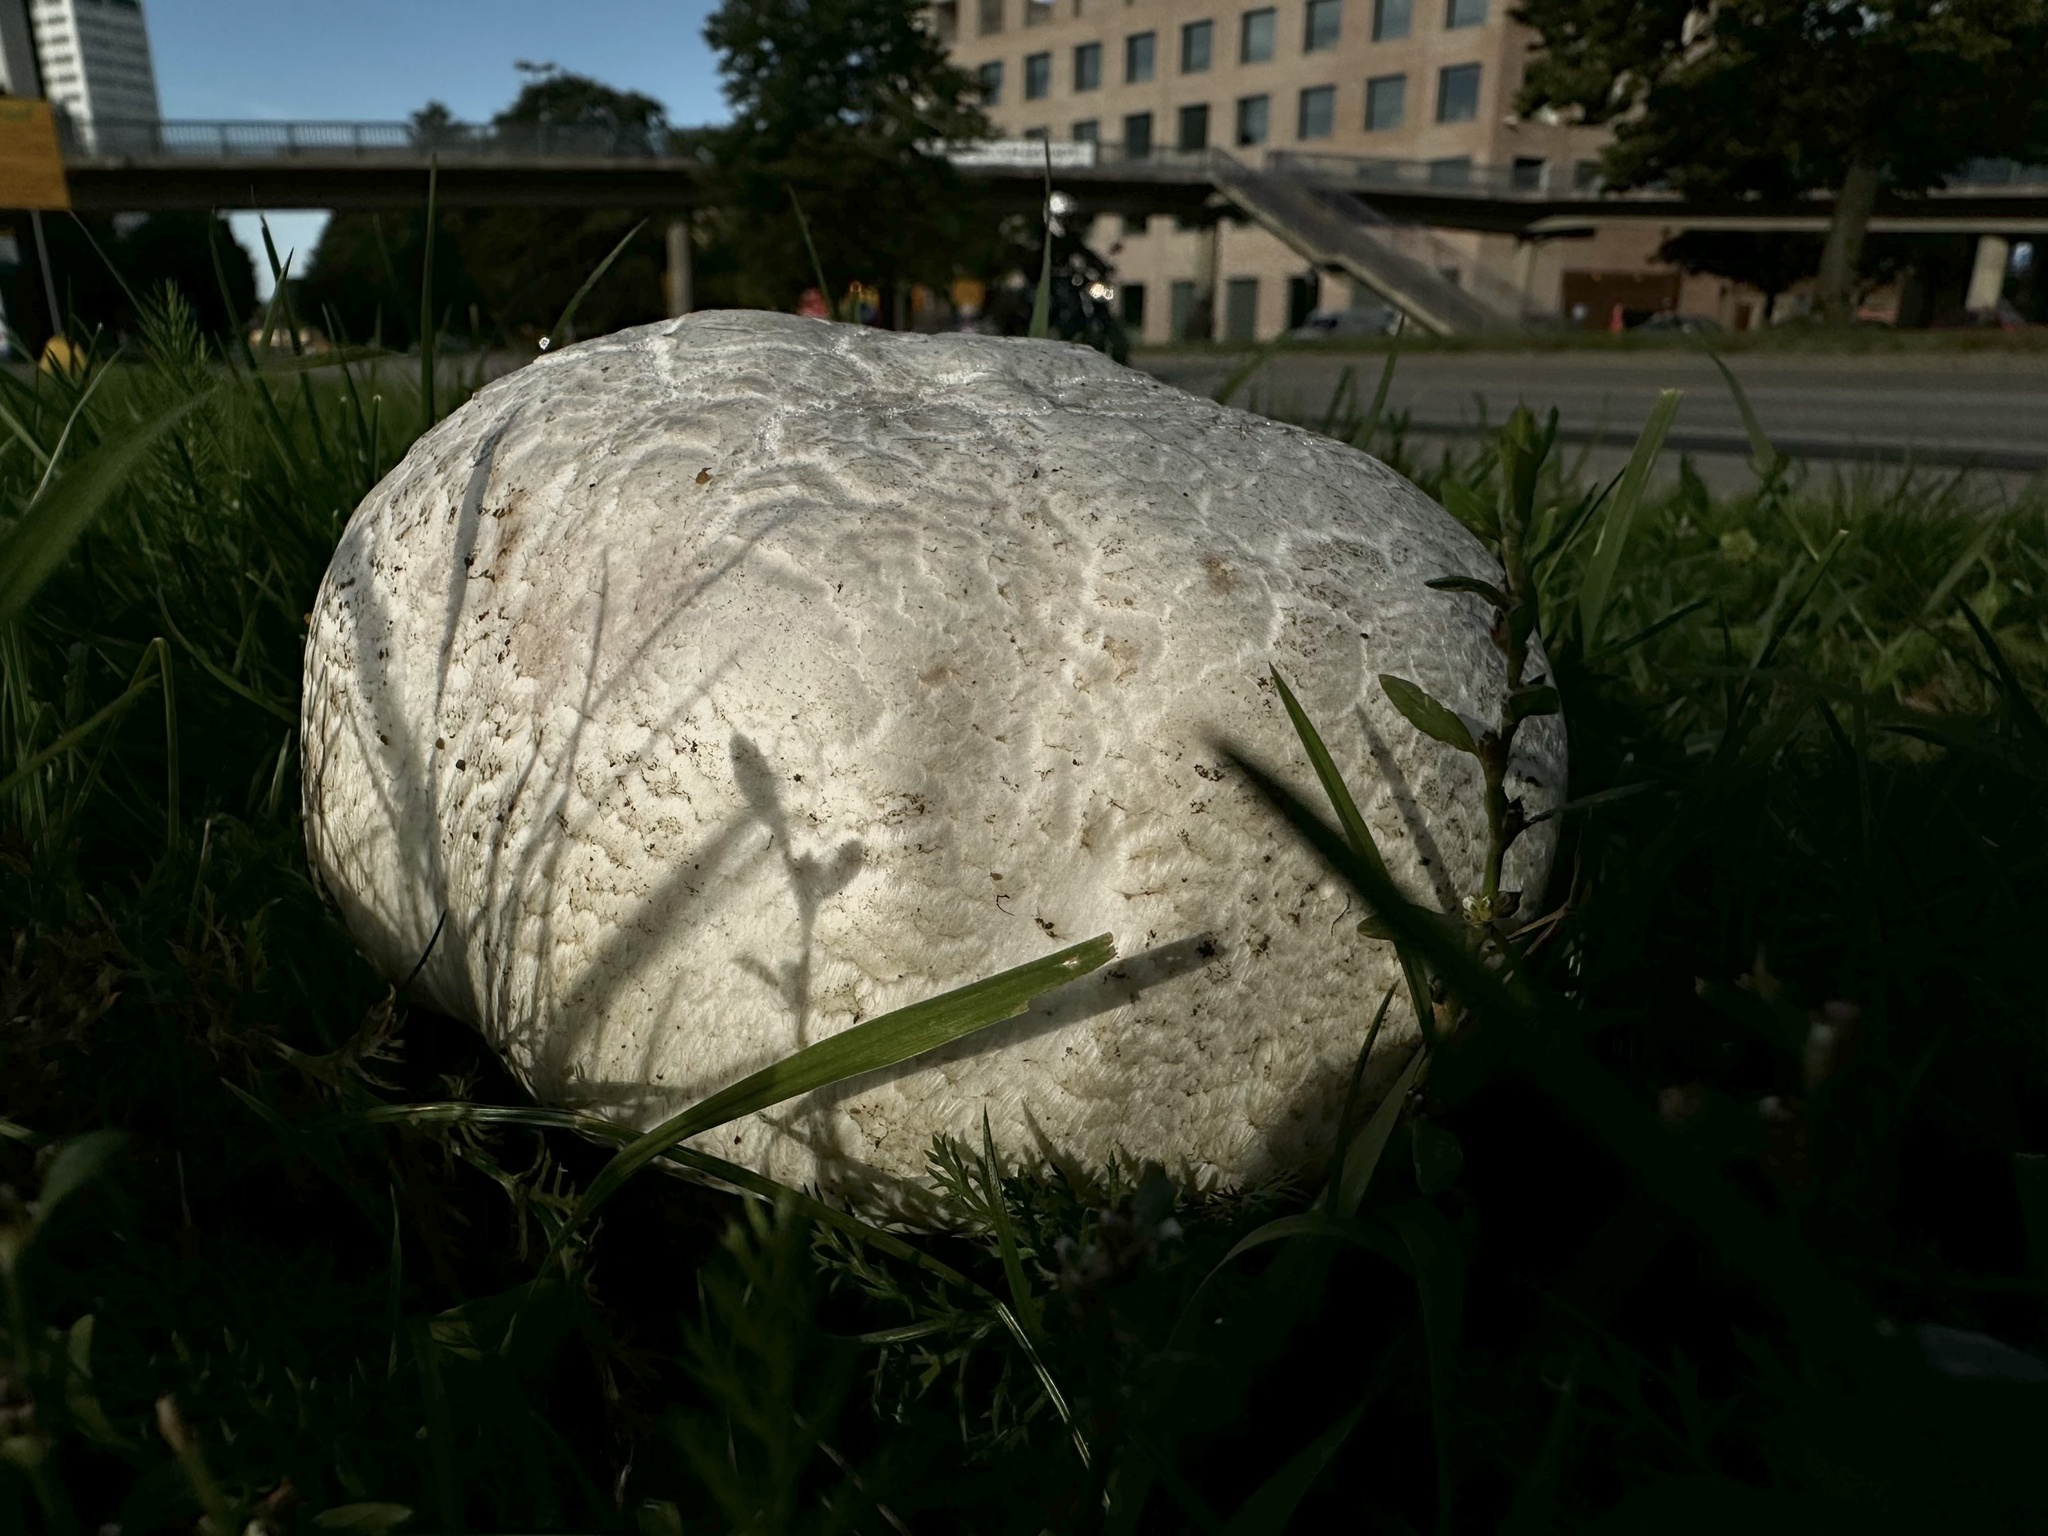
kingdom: Fungi
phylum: Basidiomycota
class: Agaricomycetes
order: Agaricales
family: Lycoperdaceae
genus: Calvatia
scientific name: Calvatia gigantea
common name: Giant puffball
